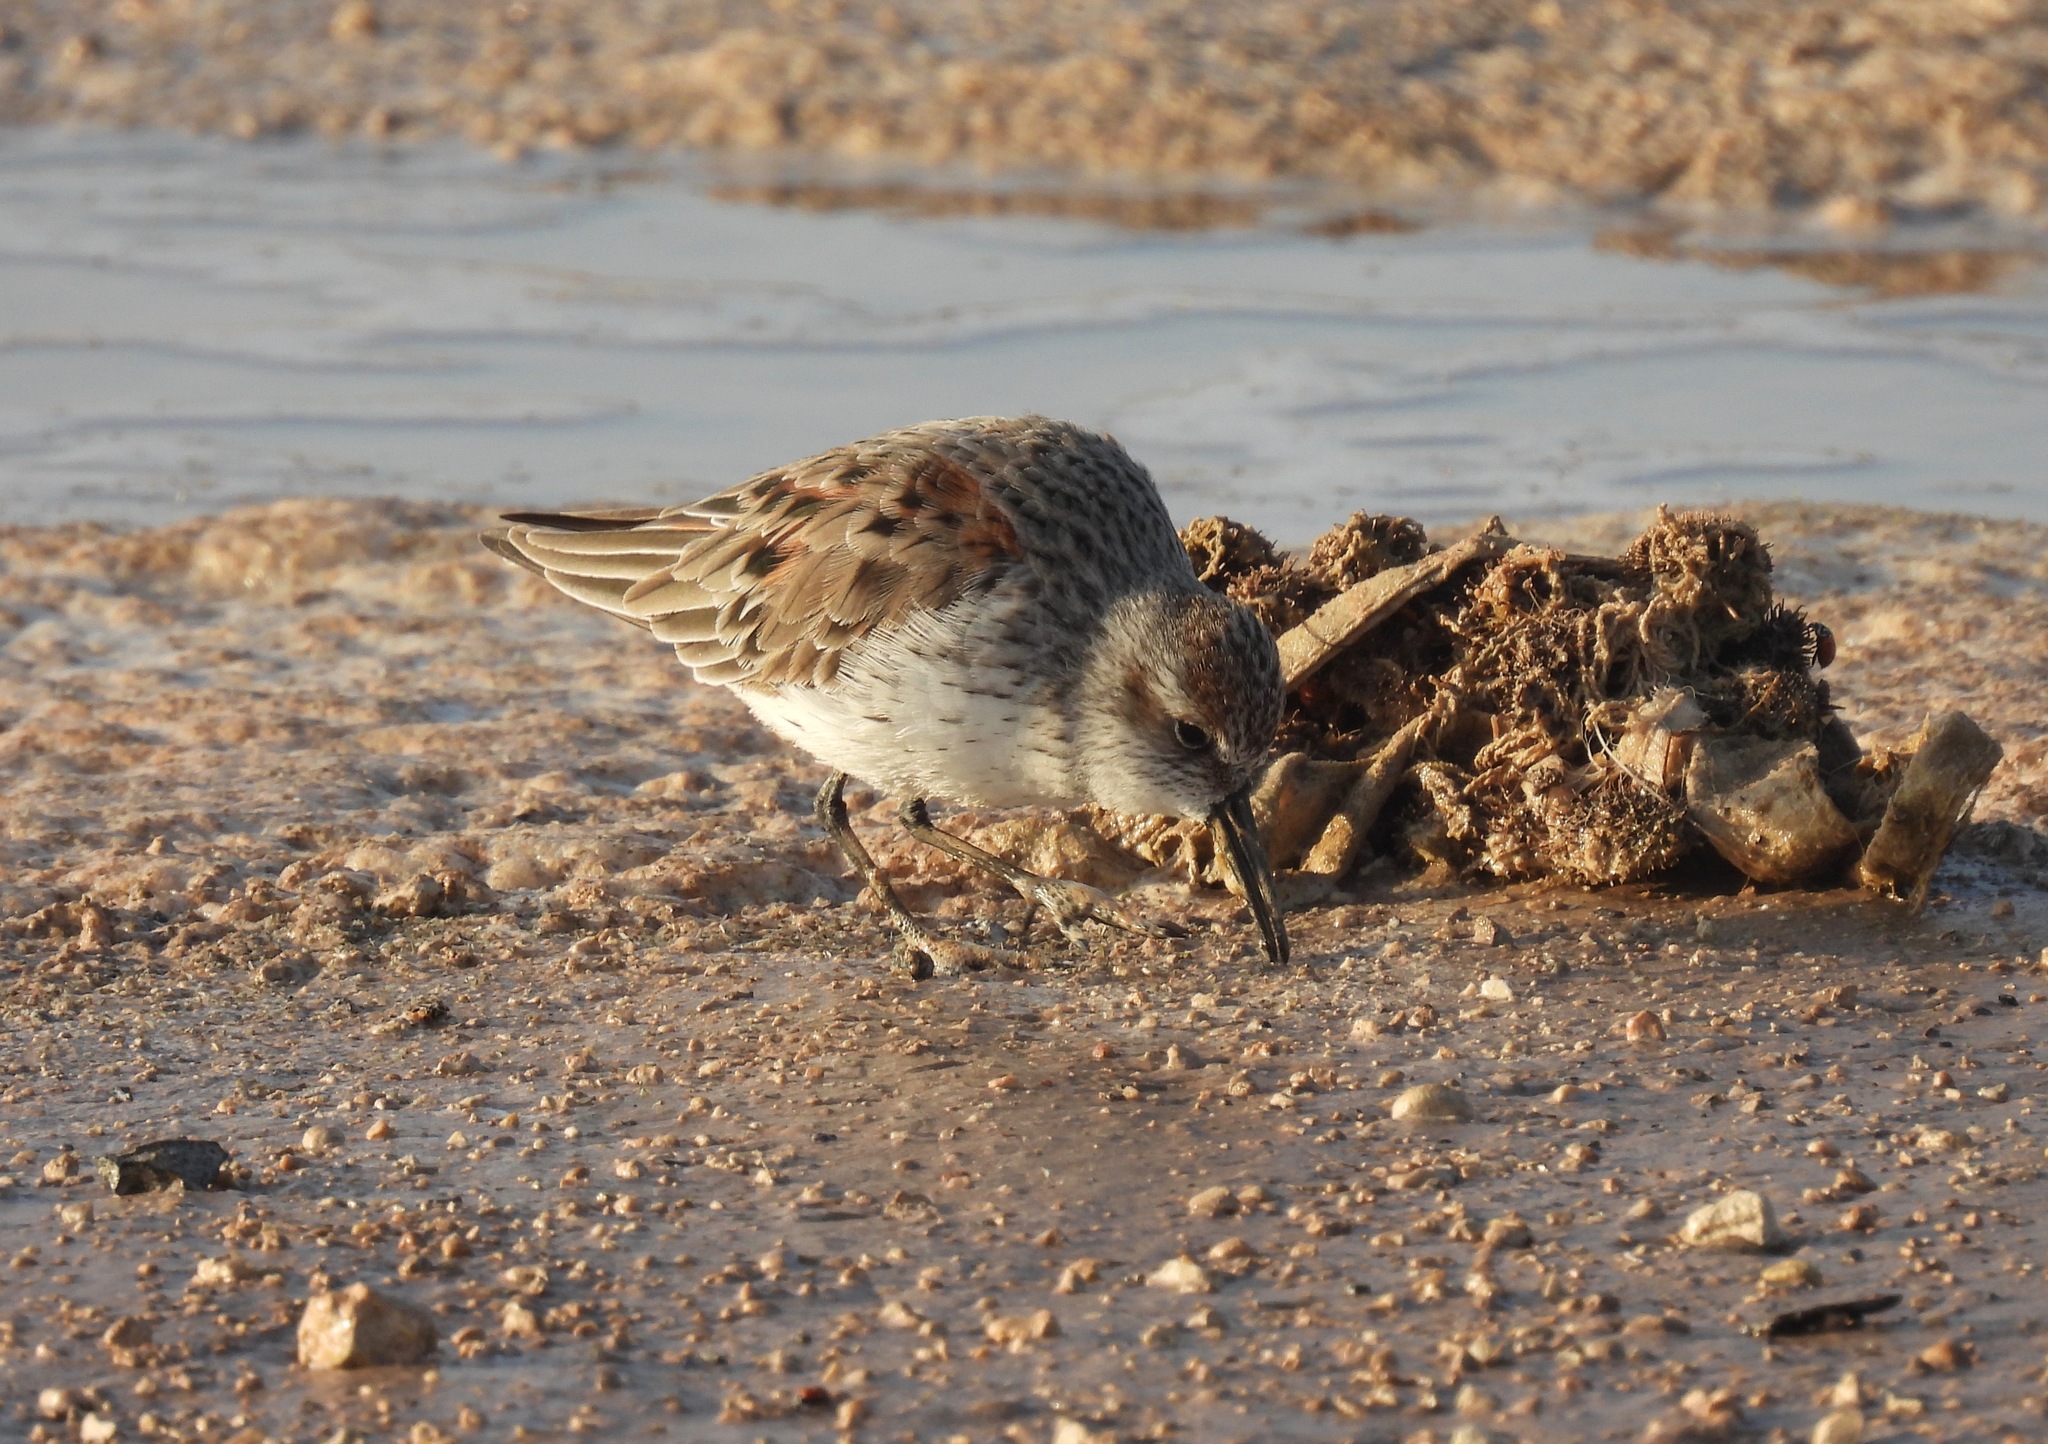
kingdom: Animalia
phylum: Chordata
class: Aves
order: Charadriiformes
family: Scolopacidae
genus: Calidris
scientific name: Calidris mauri
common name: Western sandpiper
